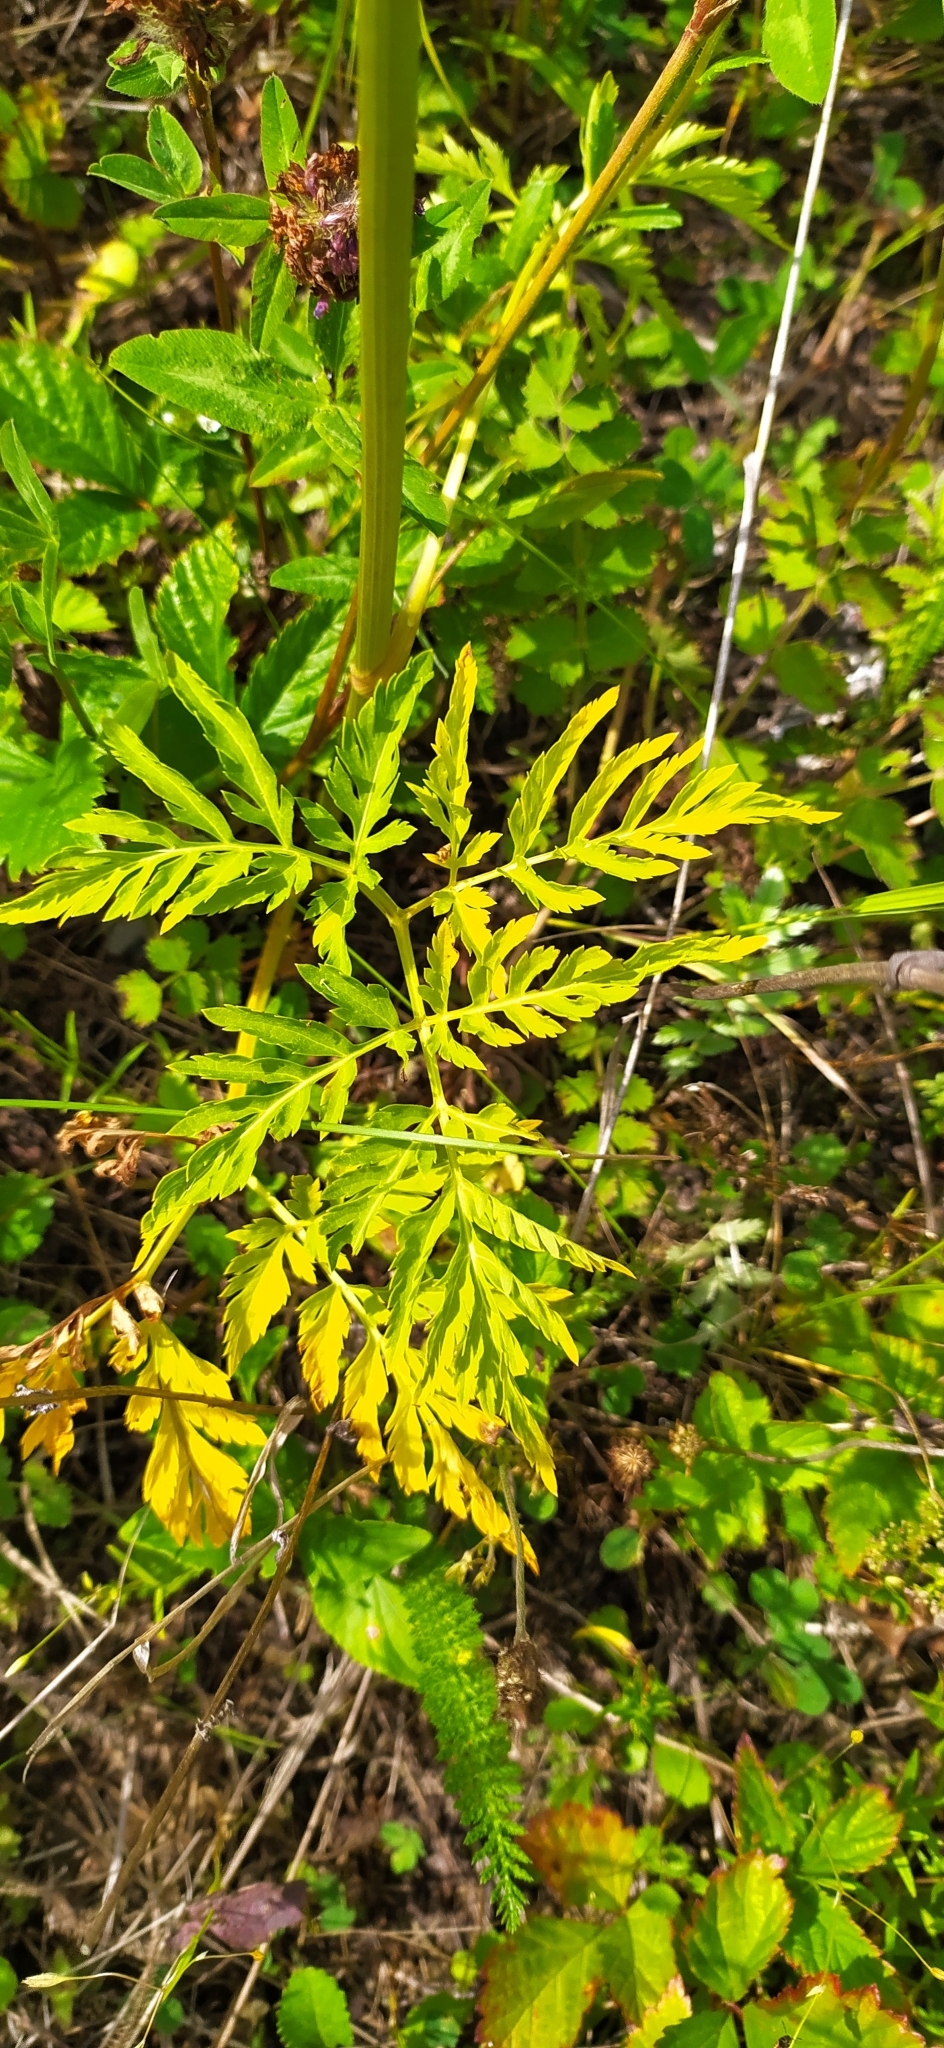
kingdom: Plantae
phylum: Tracheophyta
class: Magnoliopsida
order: Apiales
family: Apiaceae
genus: Pleurospermum
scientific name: Pleurospermum uralense
